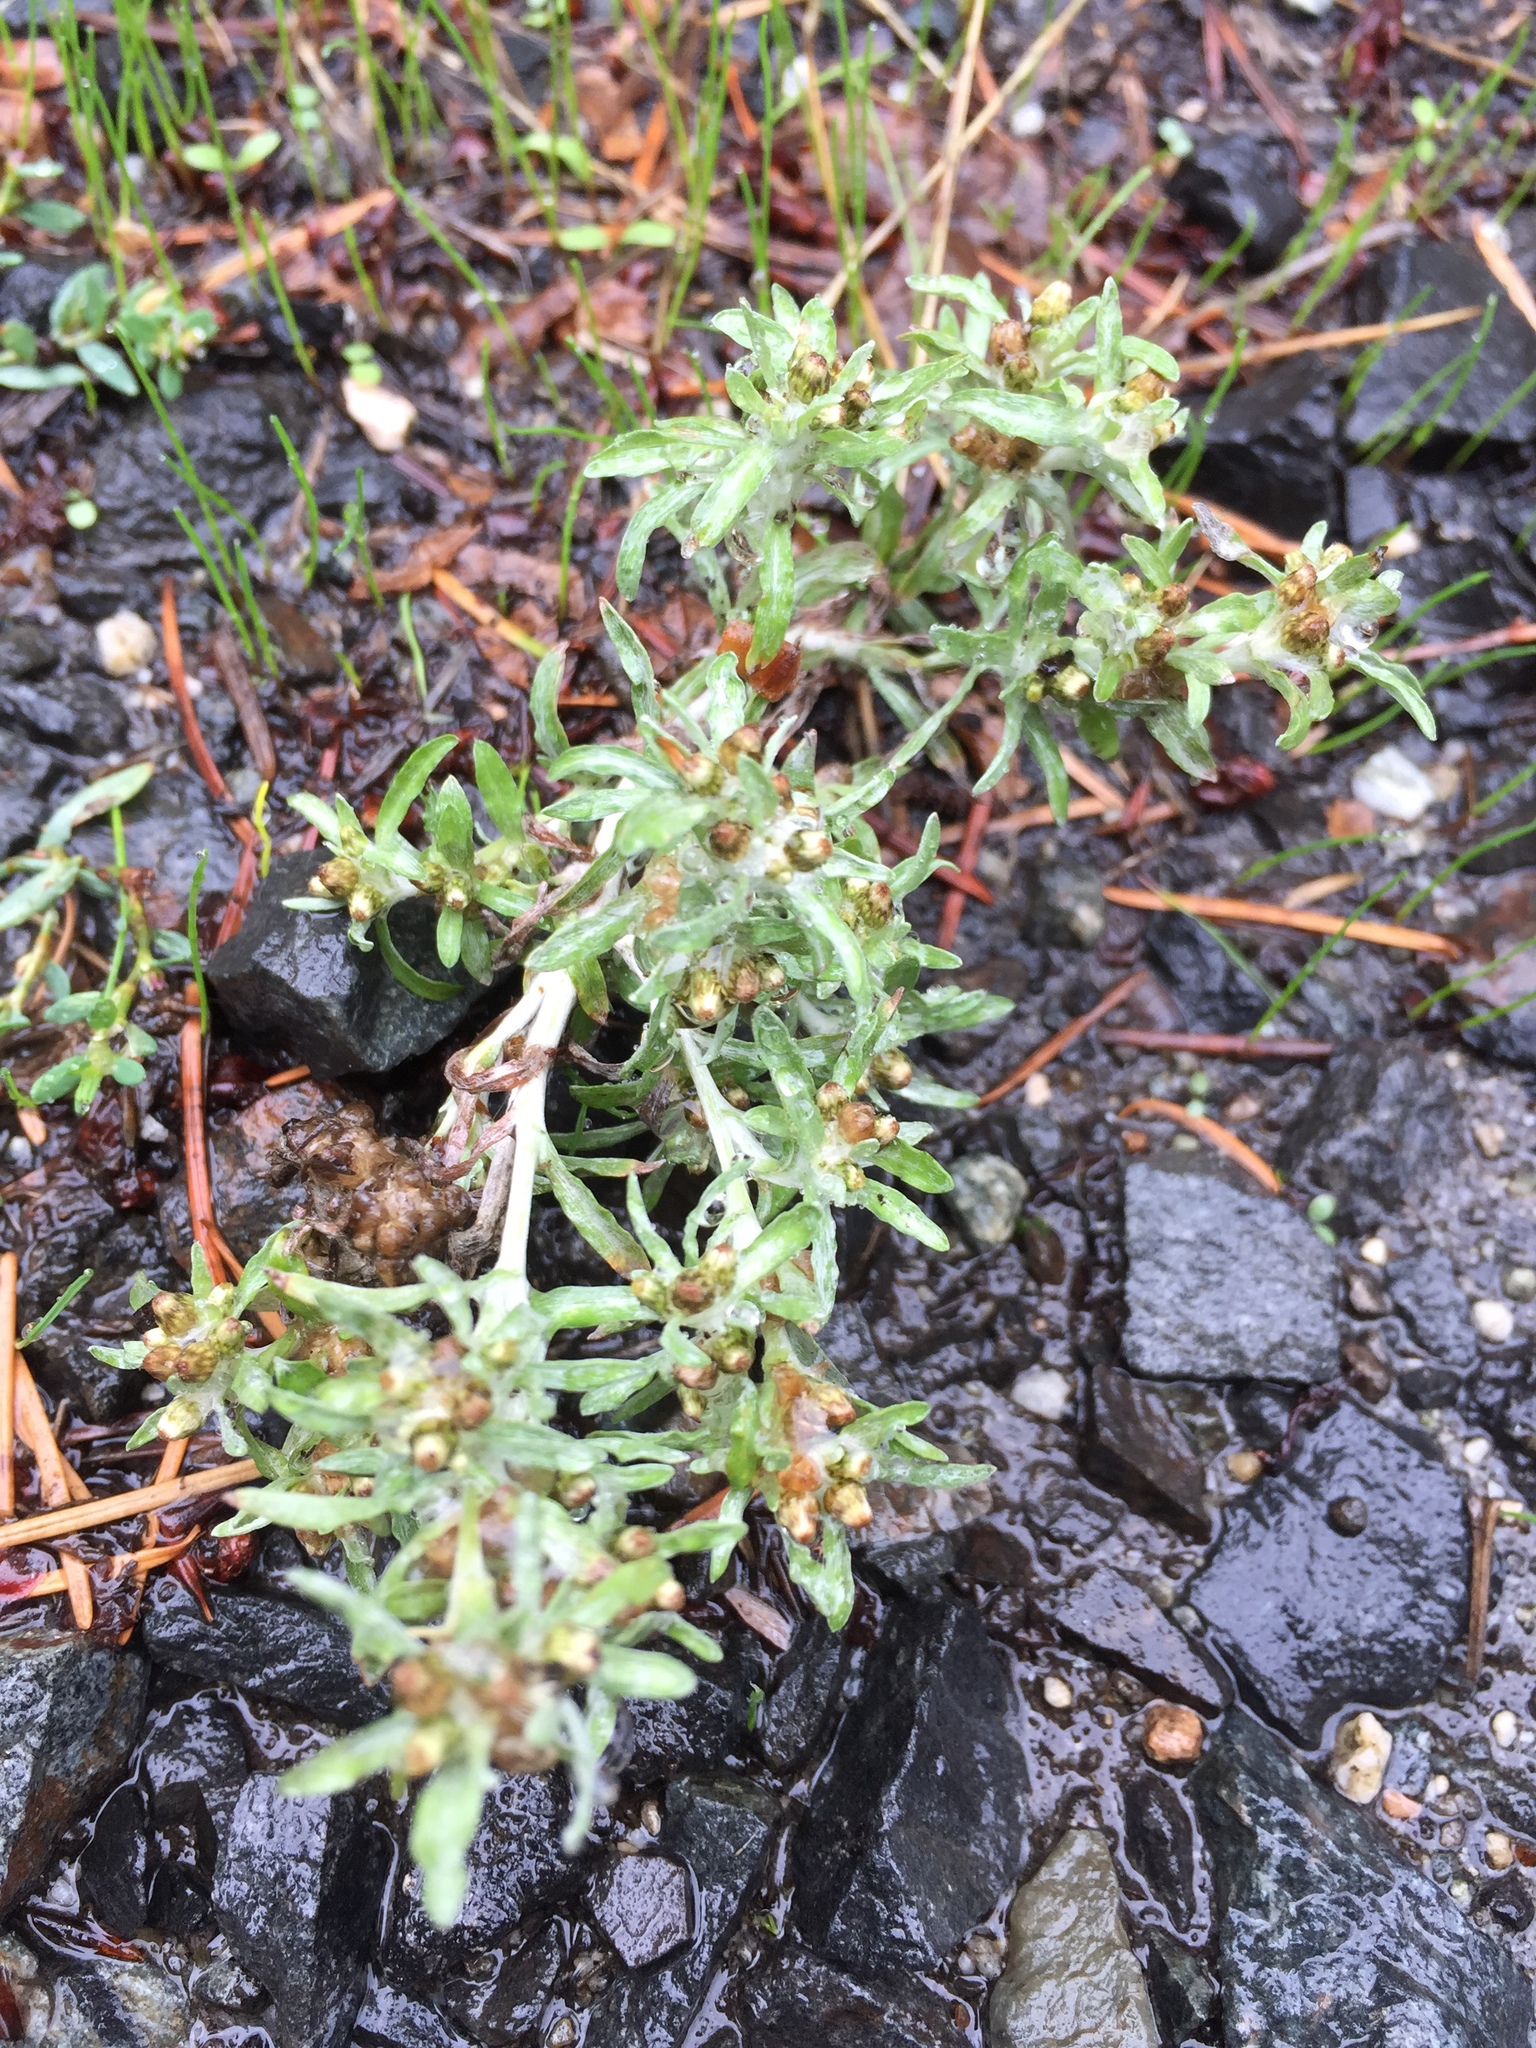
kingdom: Plantae
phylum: Tracheophyta
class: Magnoliopsida
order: Asterales
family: Asteraceae
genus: Gnaphalium
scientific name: Gnaphalium uliginosum
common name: Marsh cudweed
